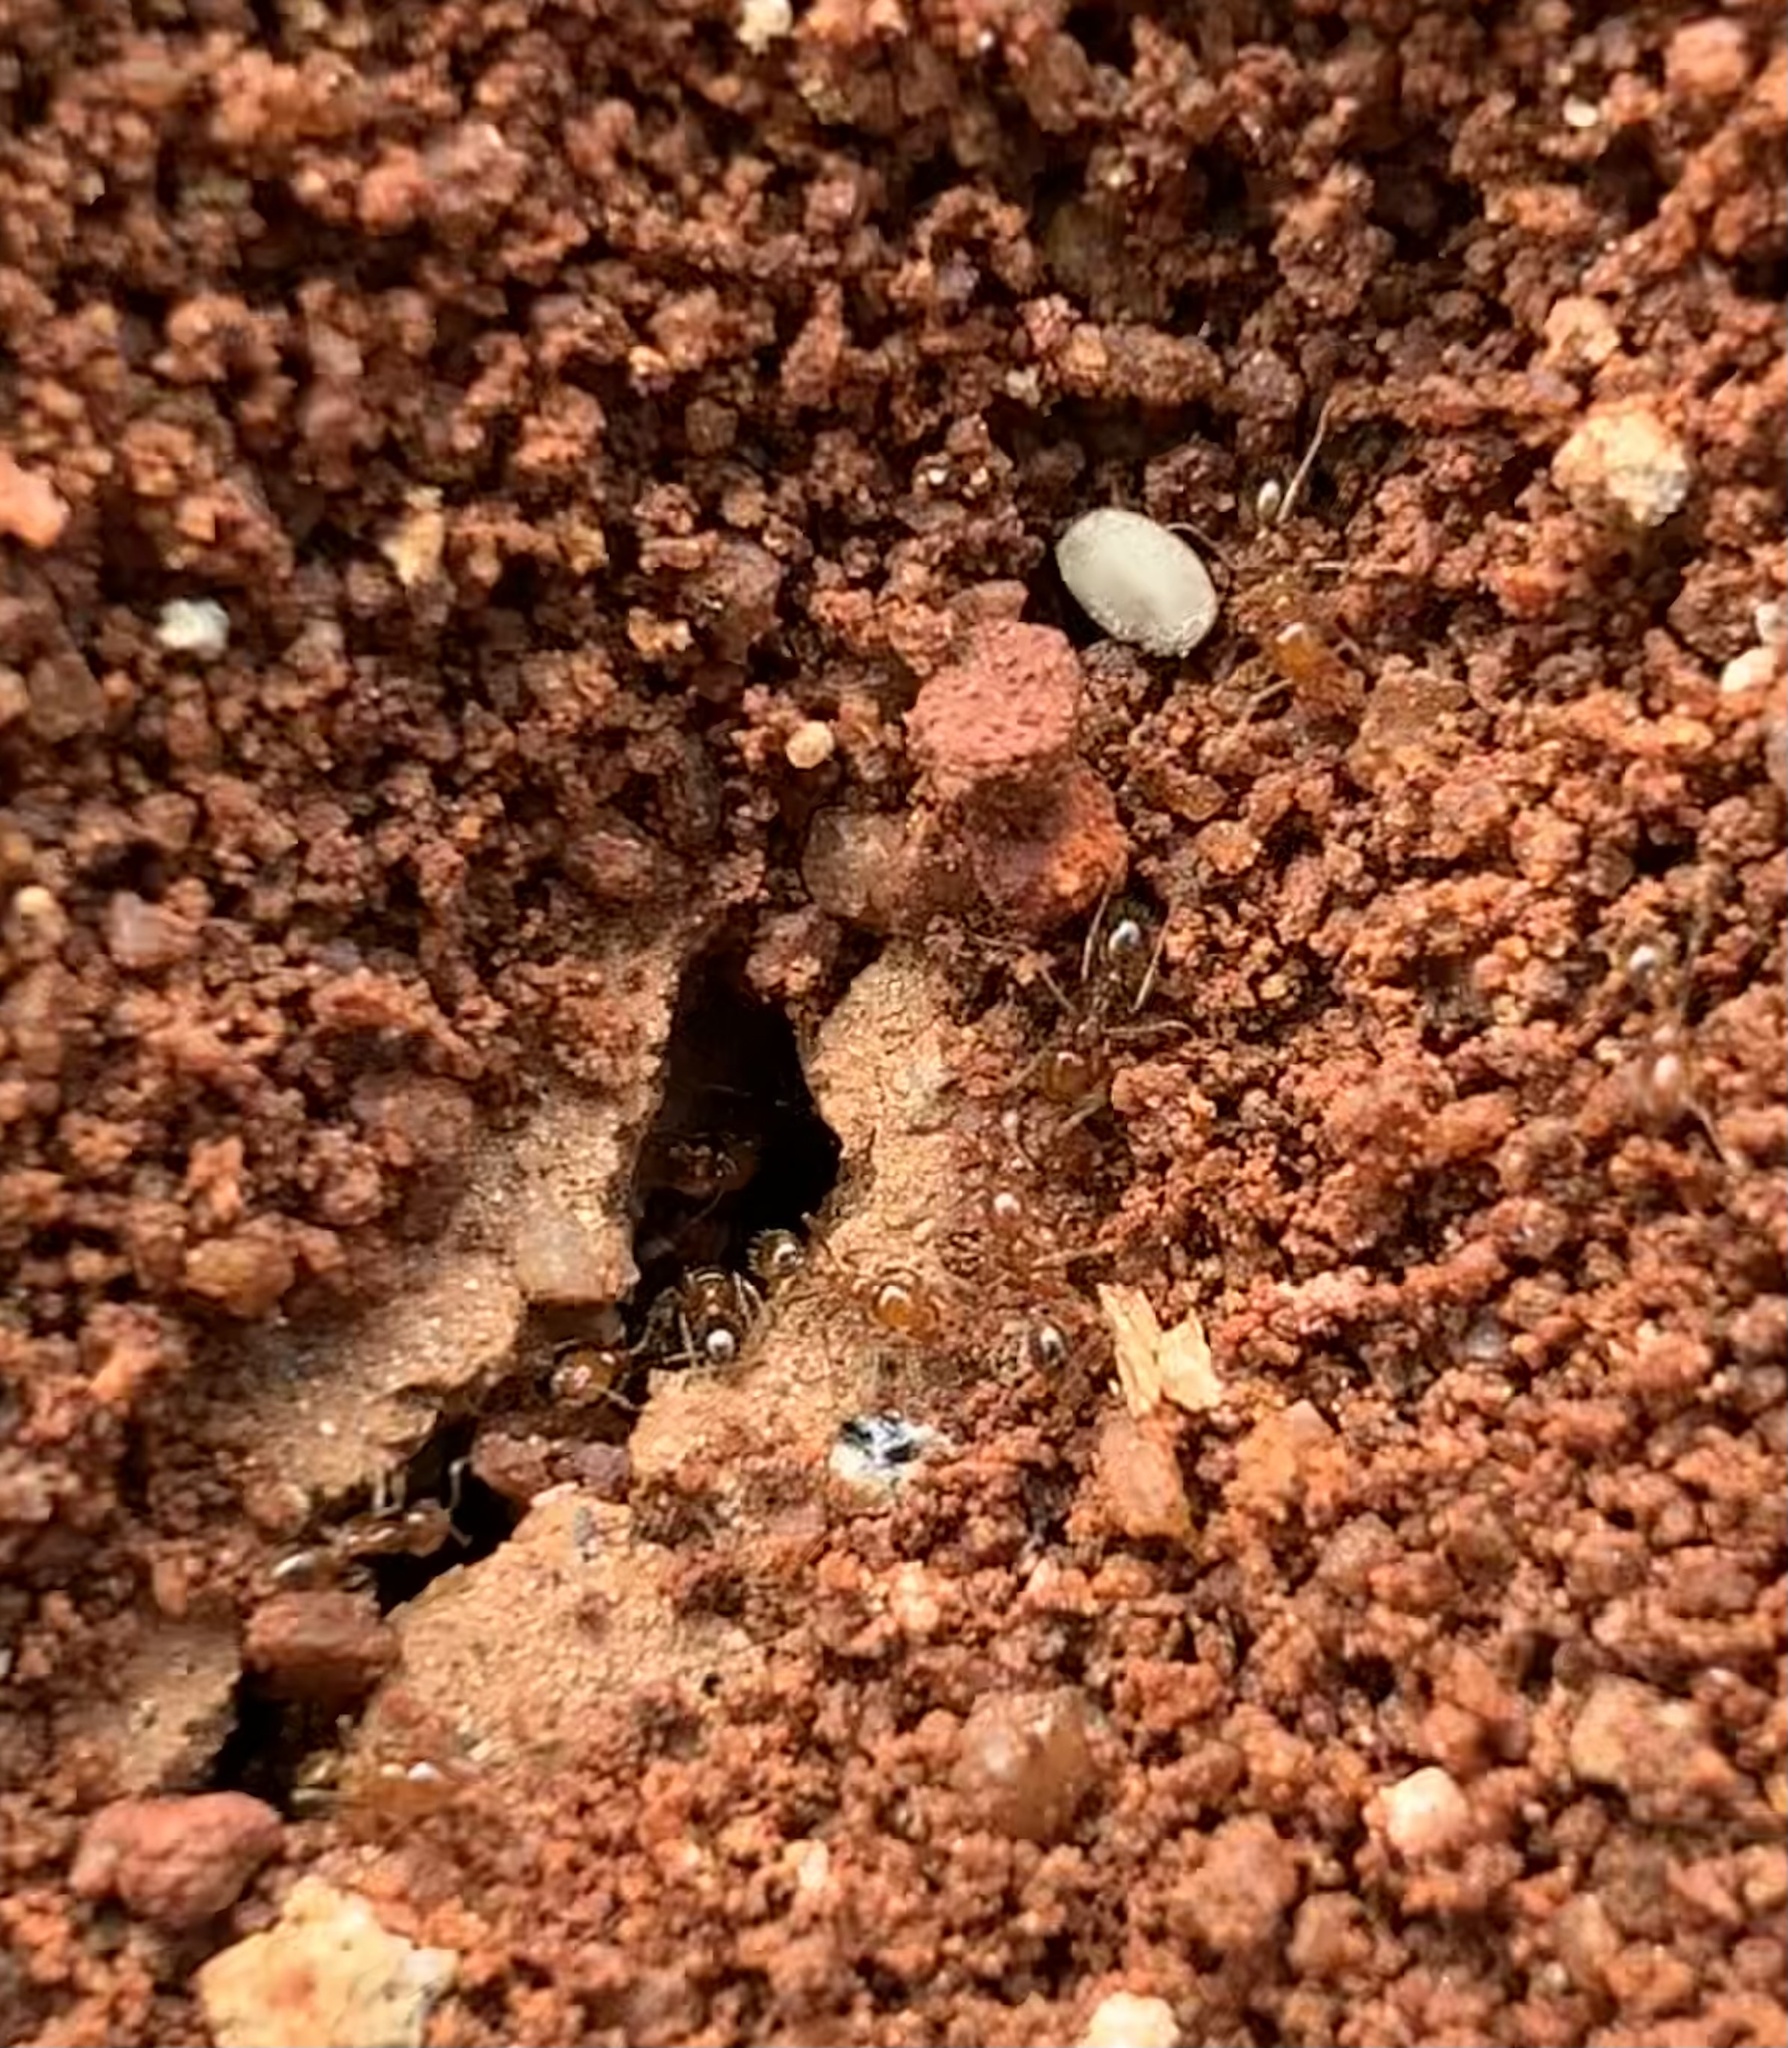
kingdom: Animalia
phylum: Arthropoda
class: Insecta
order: Hymenoptera
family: Formicidae
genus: Solenopsis
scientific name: Solenopsis geminata
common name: Tropical fire ant
